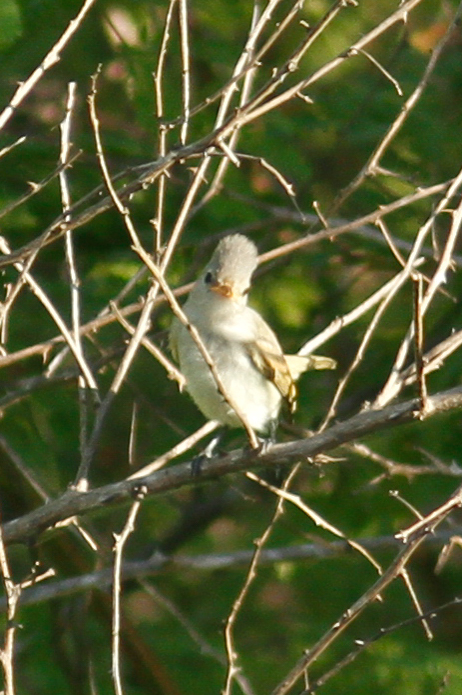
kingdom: Animalia
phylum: Chordata
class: Aves
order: Passeriformes
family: Tyrannidae
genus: Camptostoma
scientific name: Camptostoma obsoletum
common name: Southern beardless-tyrannulet
